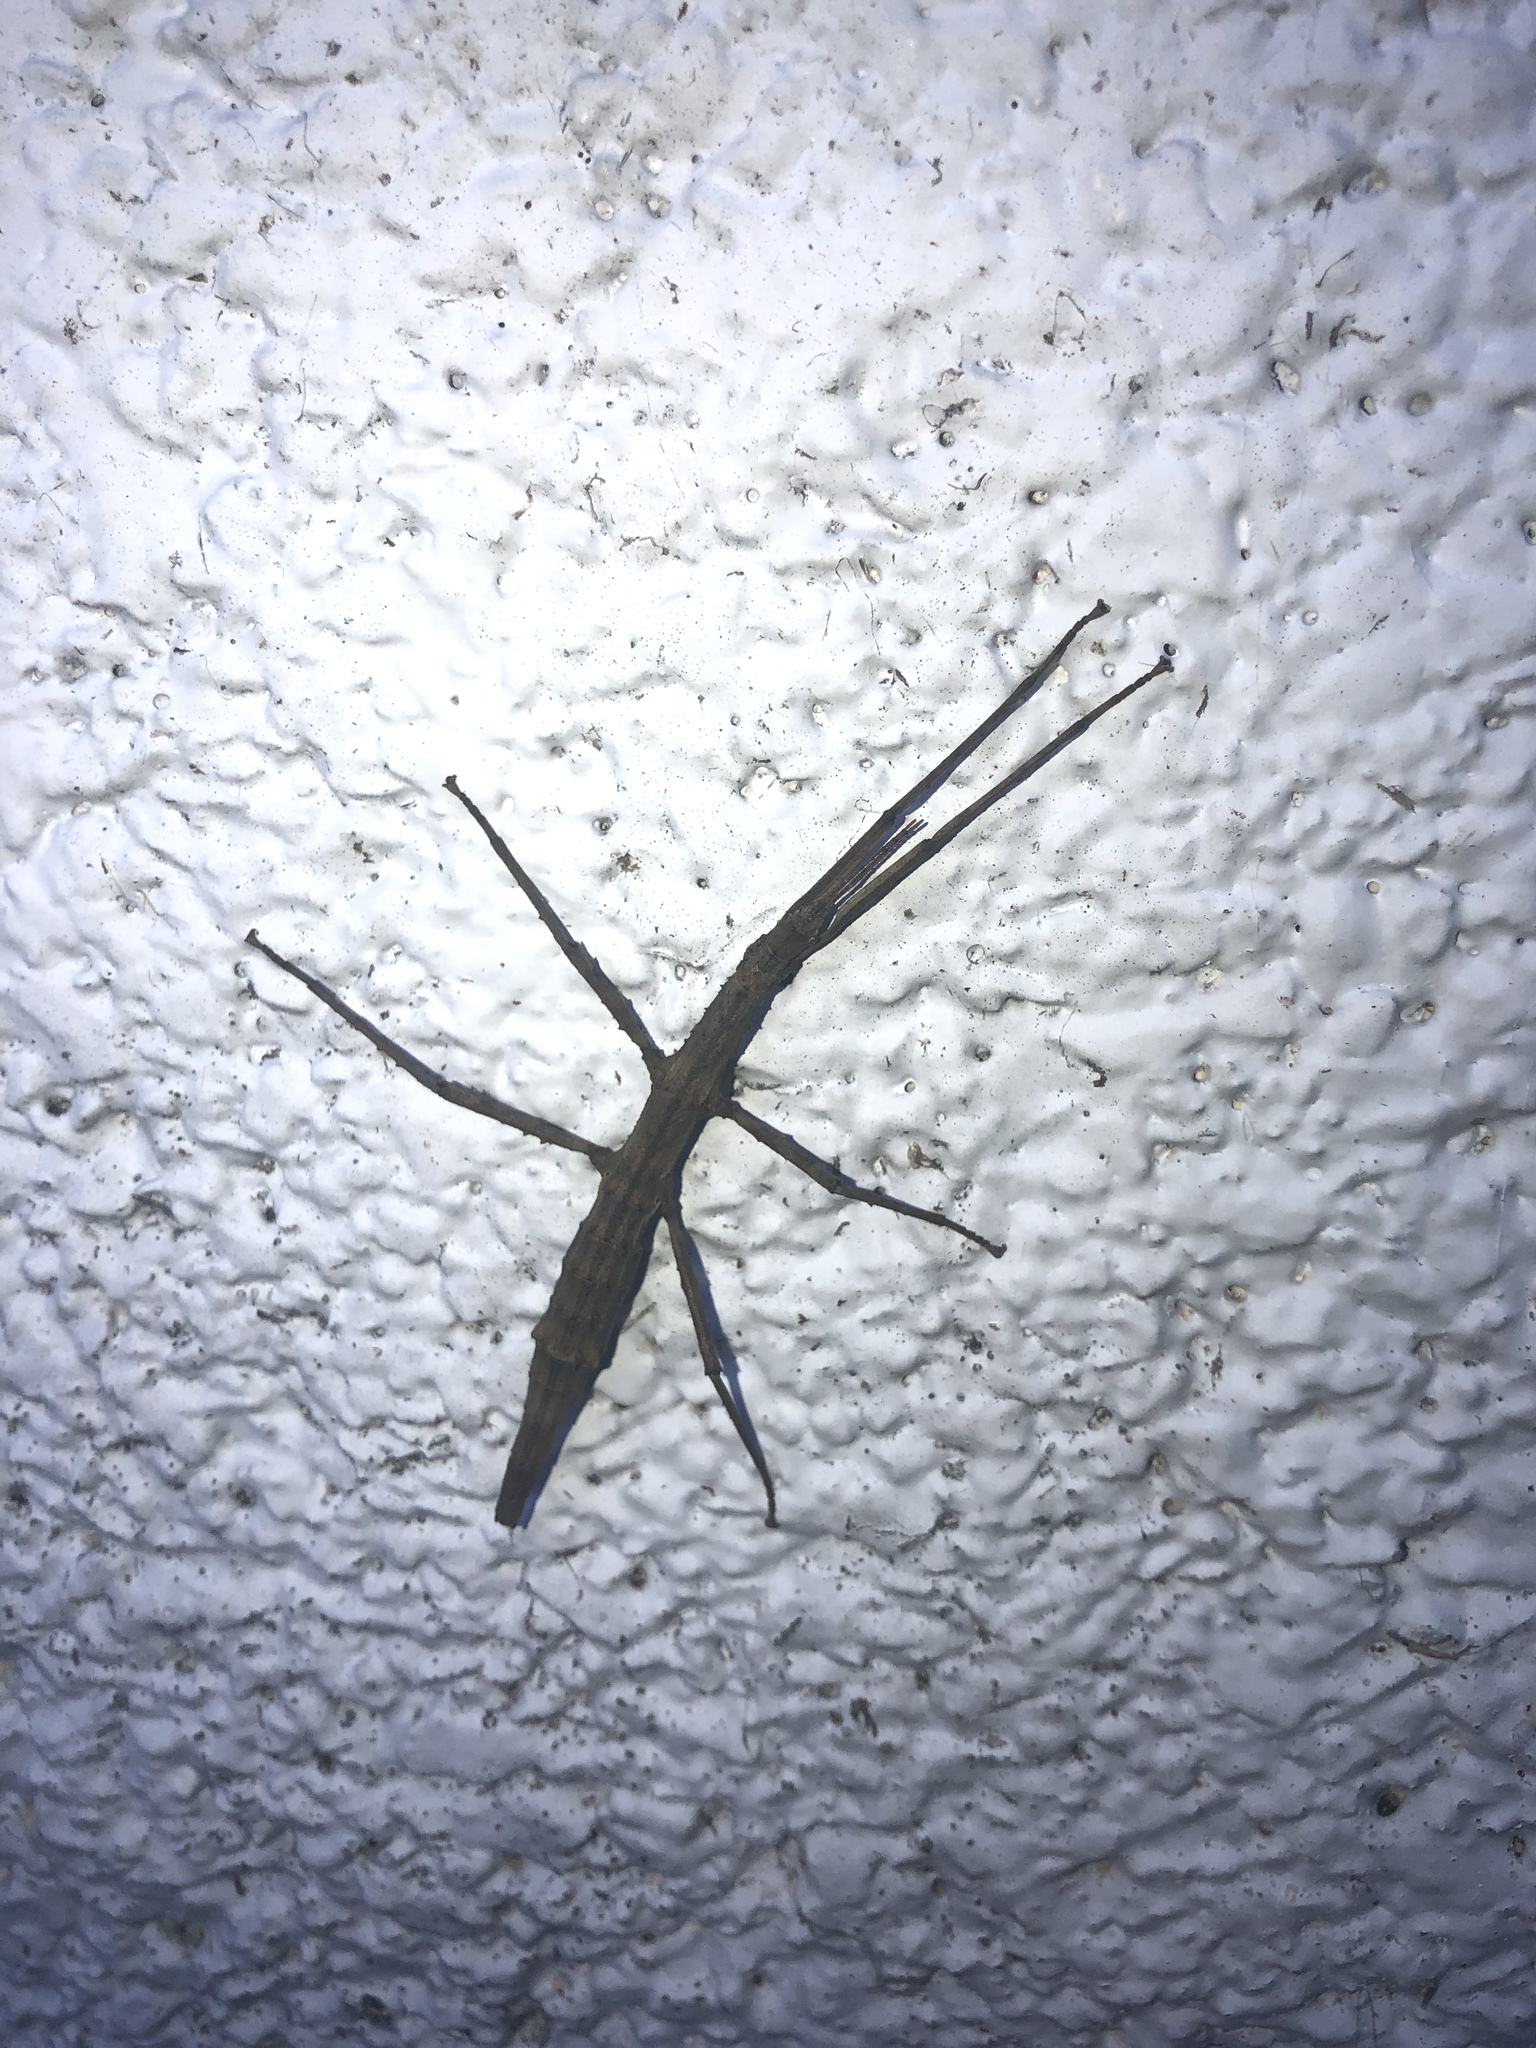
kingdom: Animalia
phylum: Arthropoda
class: Insecta
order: Phasmida
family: Phasmatidae
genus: Niveaphasma
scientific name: Niveaphasma annulatum
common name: Hutton's stick insect
